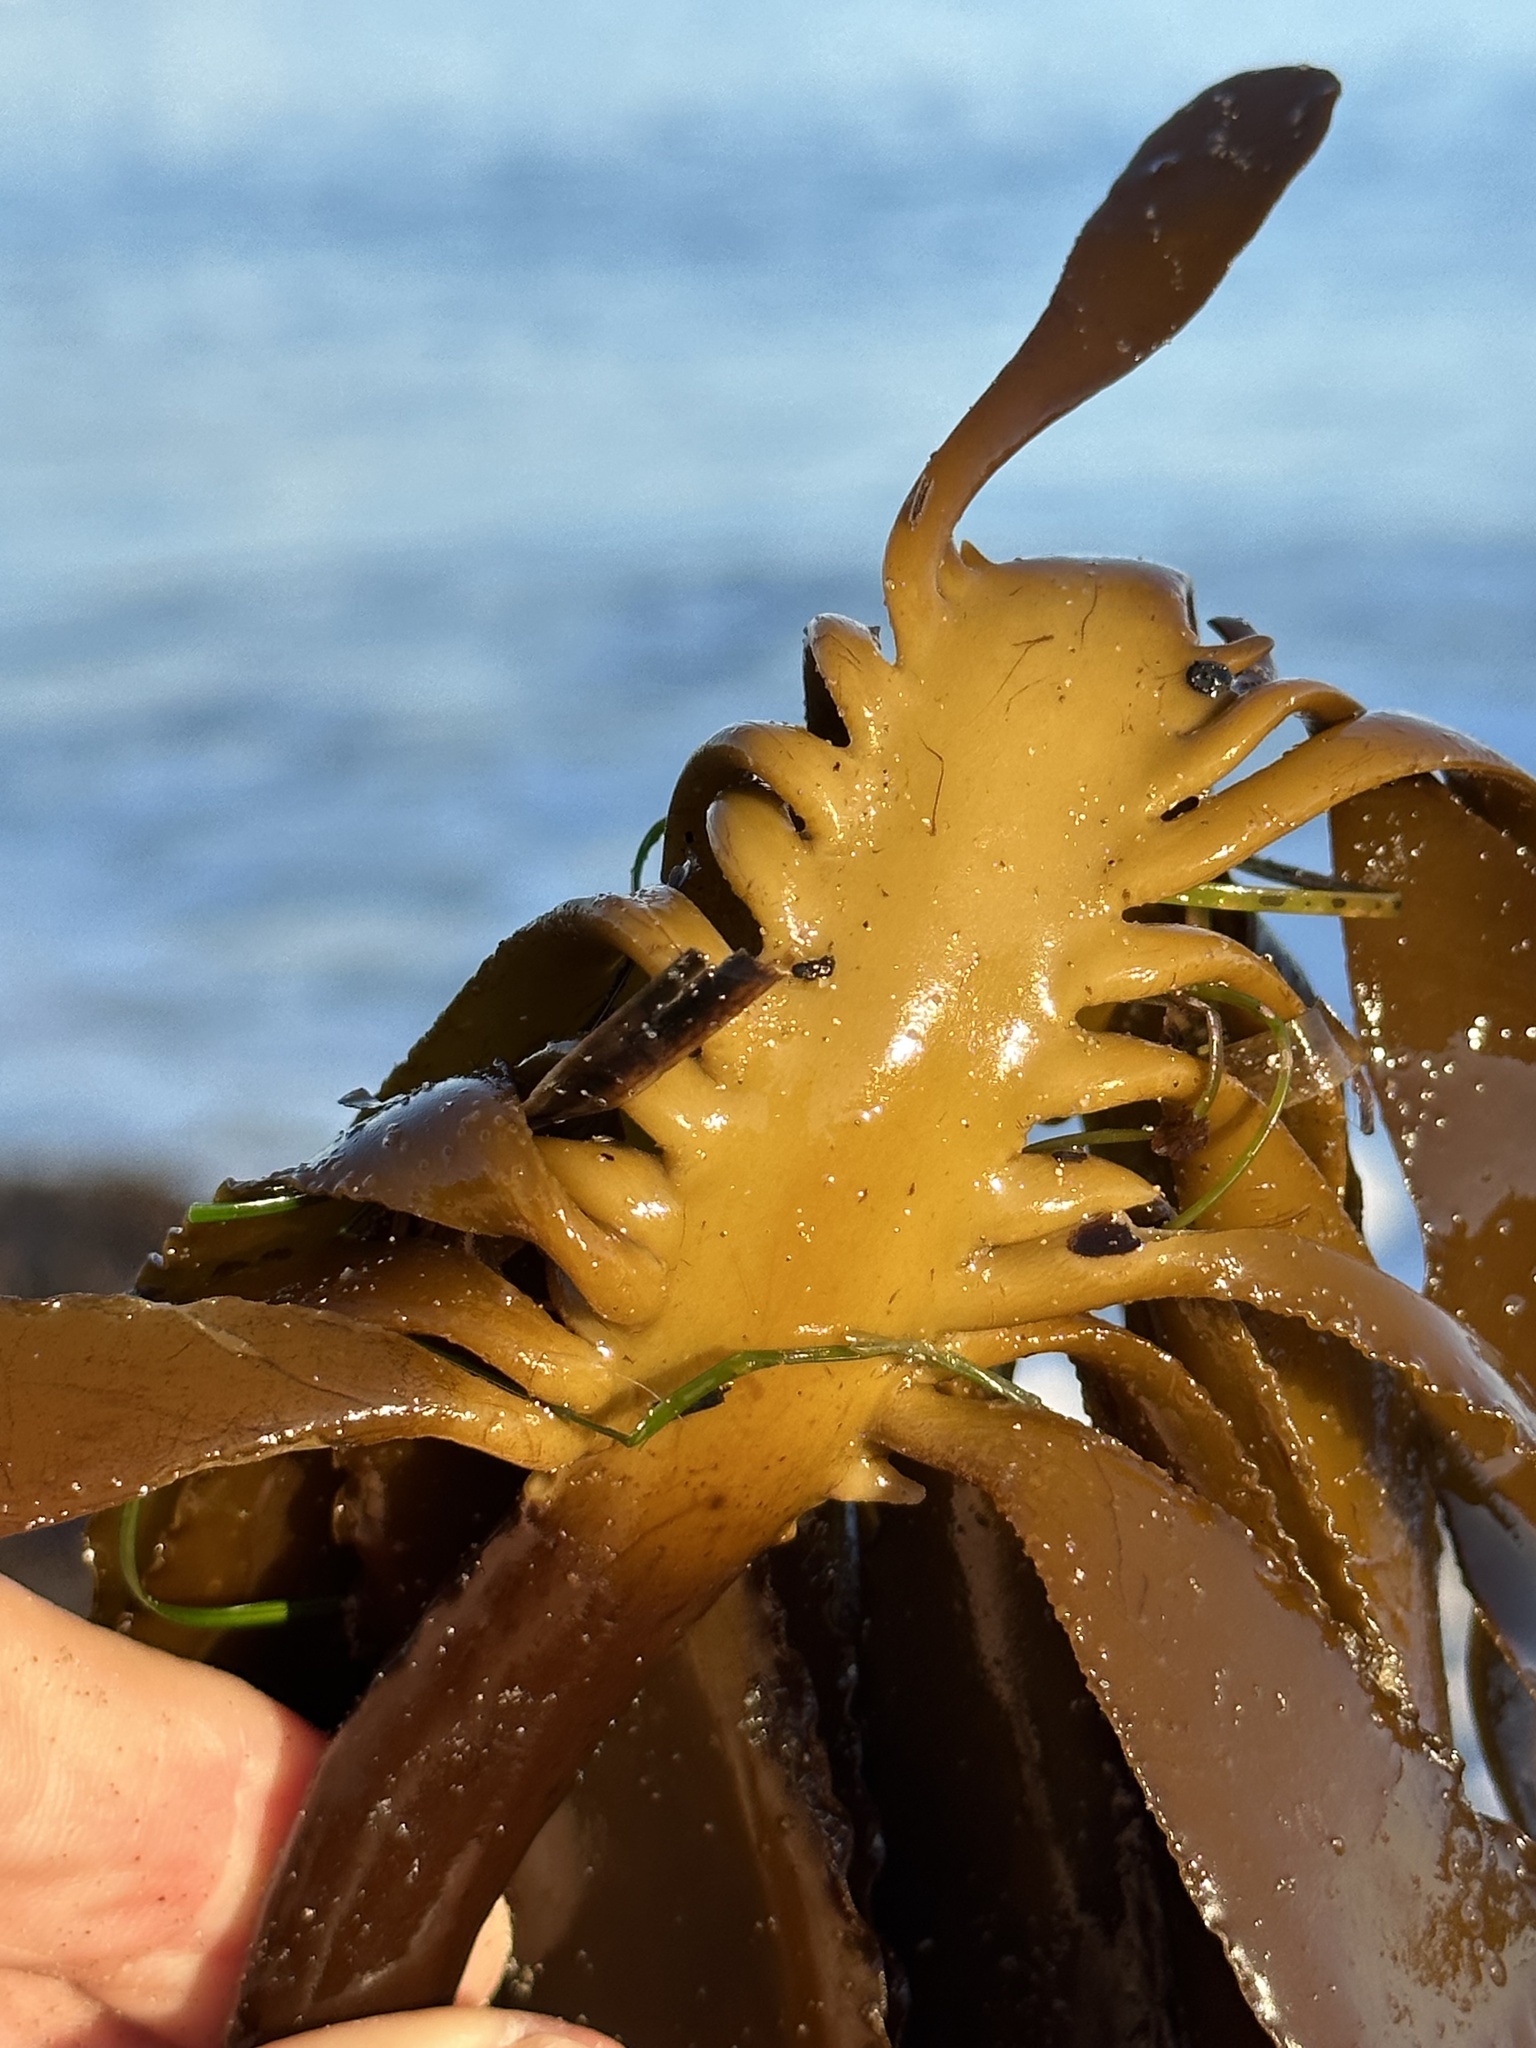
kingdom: Chromista
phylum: Ochrophyta
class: Phaeophyceae
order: Laminariales
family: Alariaceae
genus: Pterygophora
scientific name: Pterygophora californica
